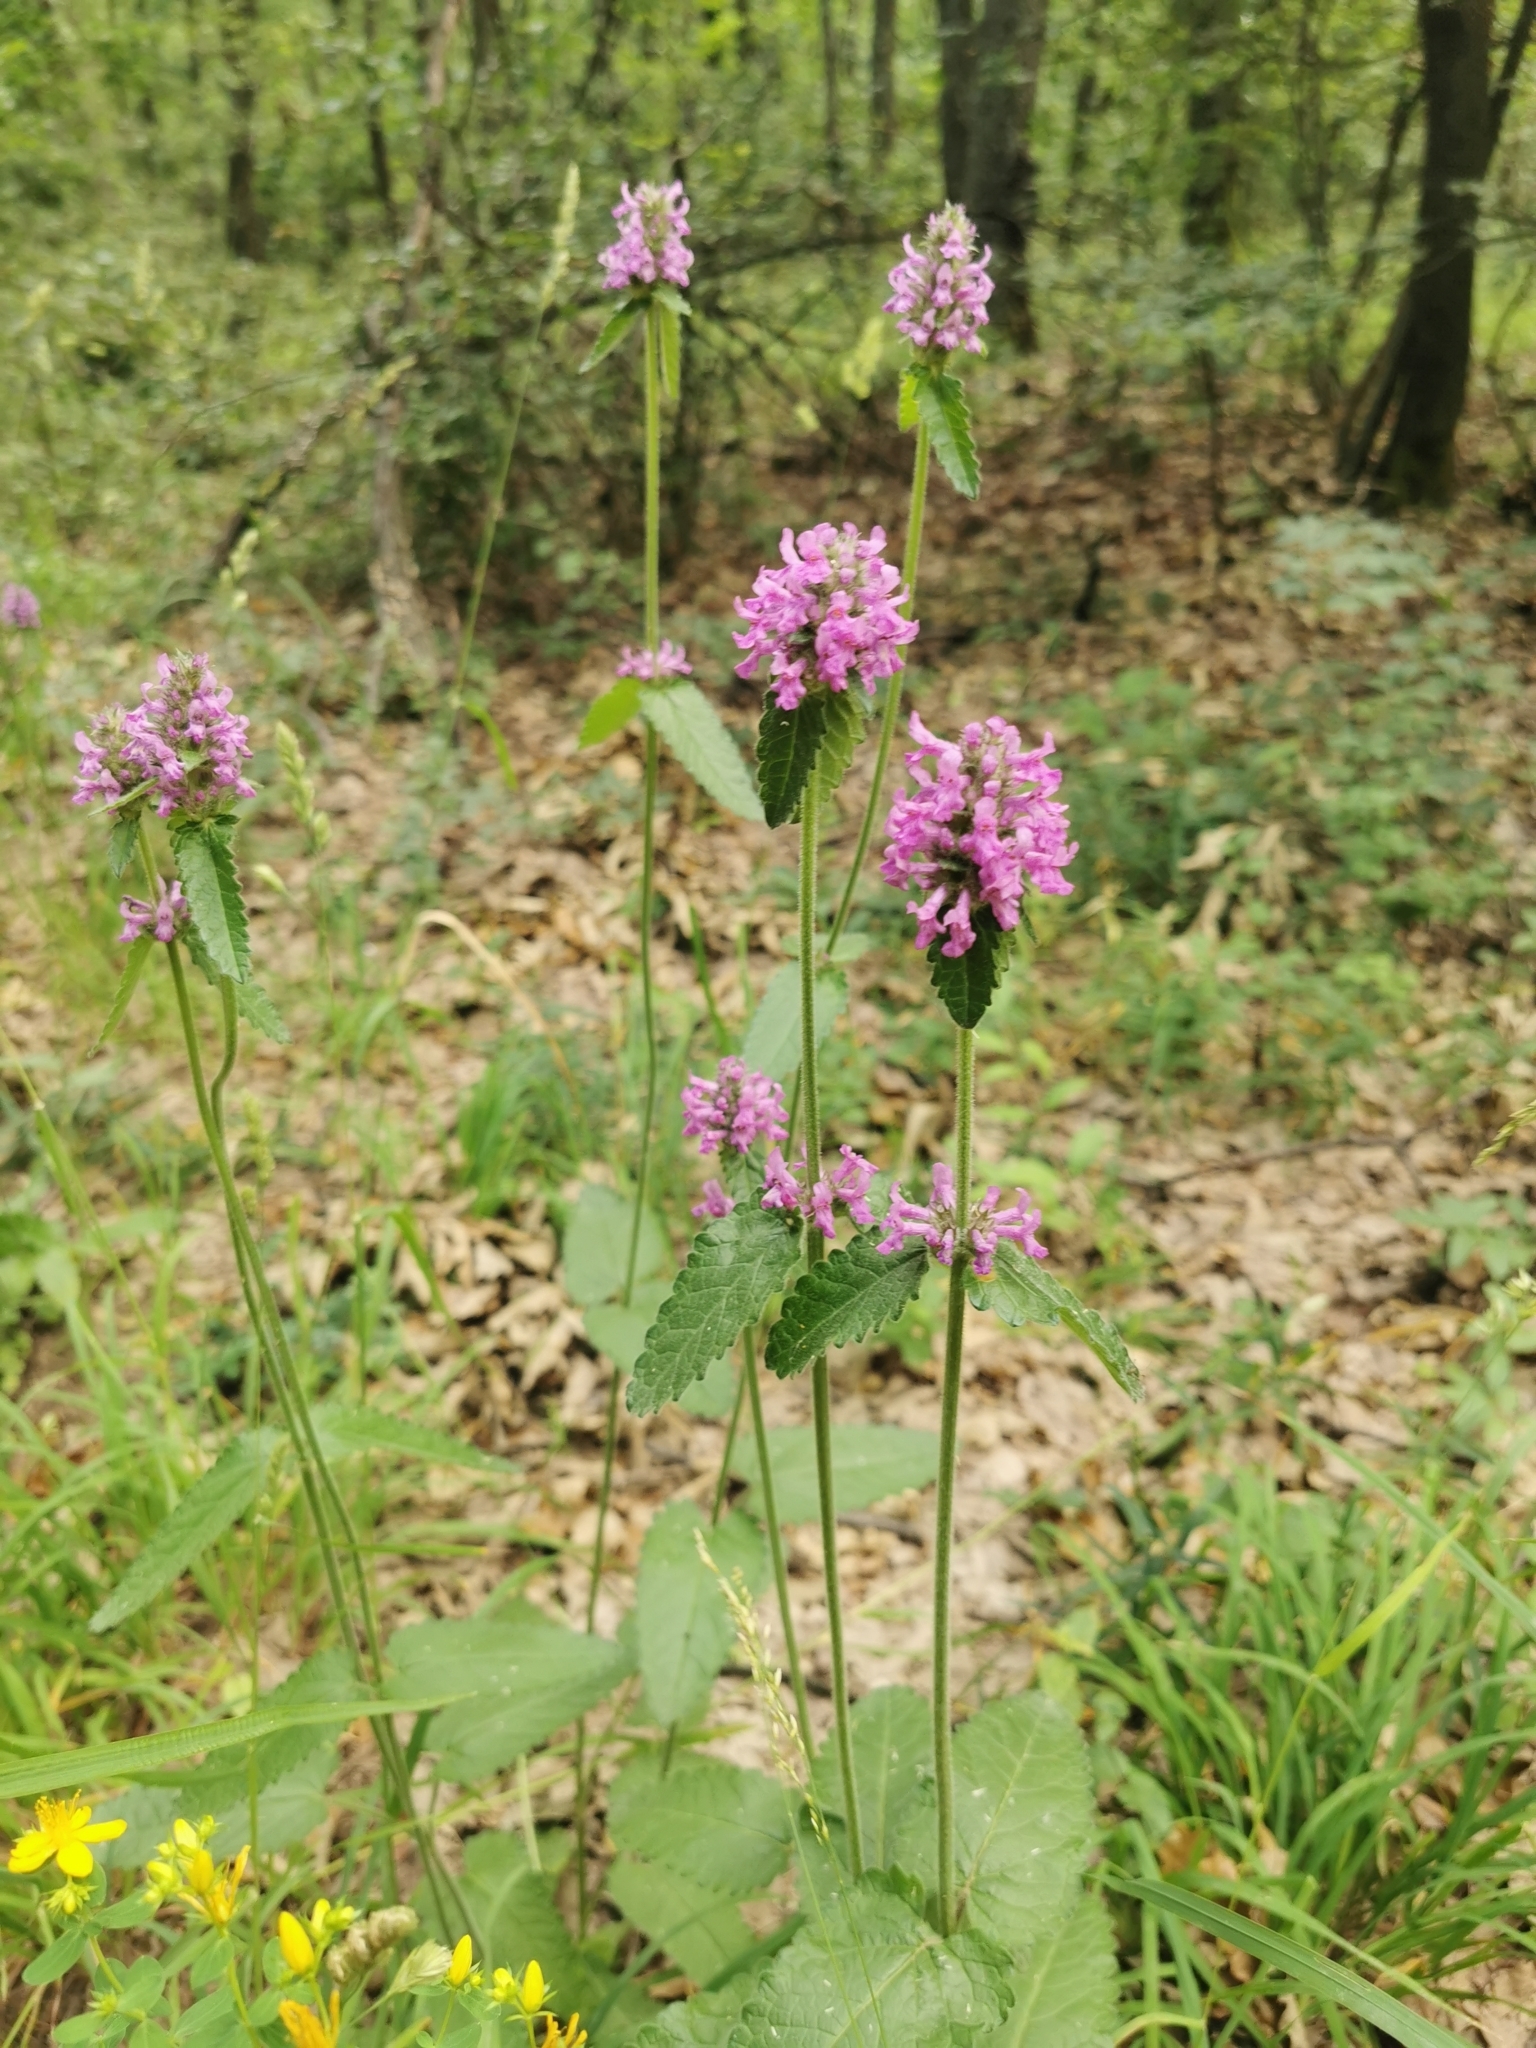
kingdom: Plantae
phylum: Tracheophyta
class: Magnoliopsida
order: Lamiales
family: Lamiaceae
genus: Betonica
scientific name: Betonica officinalis
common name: Bishop's-wort
